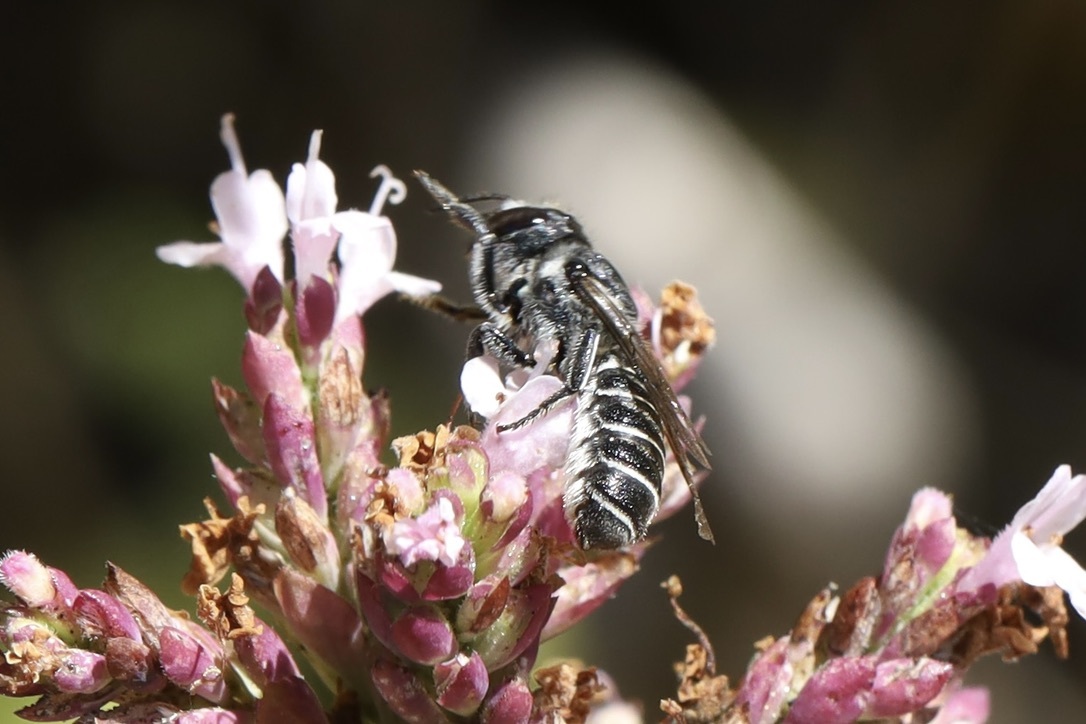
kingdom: Animalia
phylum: Arthropoda
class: Insecta
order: Hymenoptera
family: Megachilidae
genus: Megachile
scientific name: Megachile angelarum
